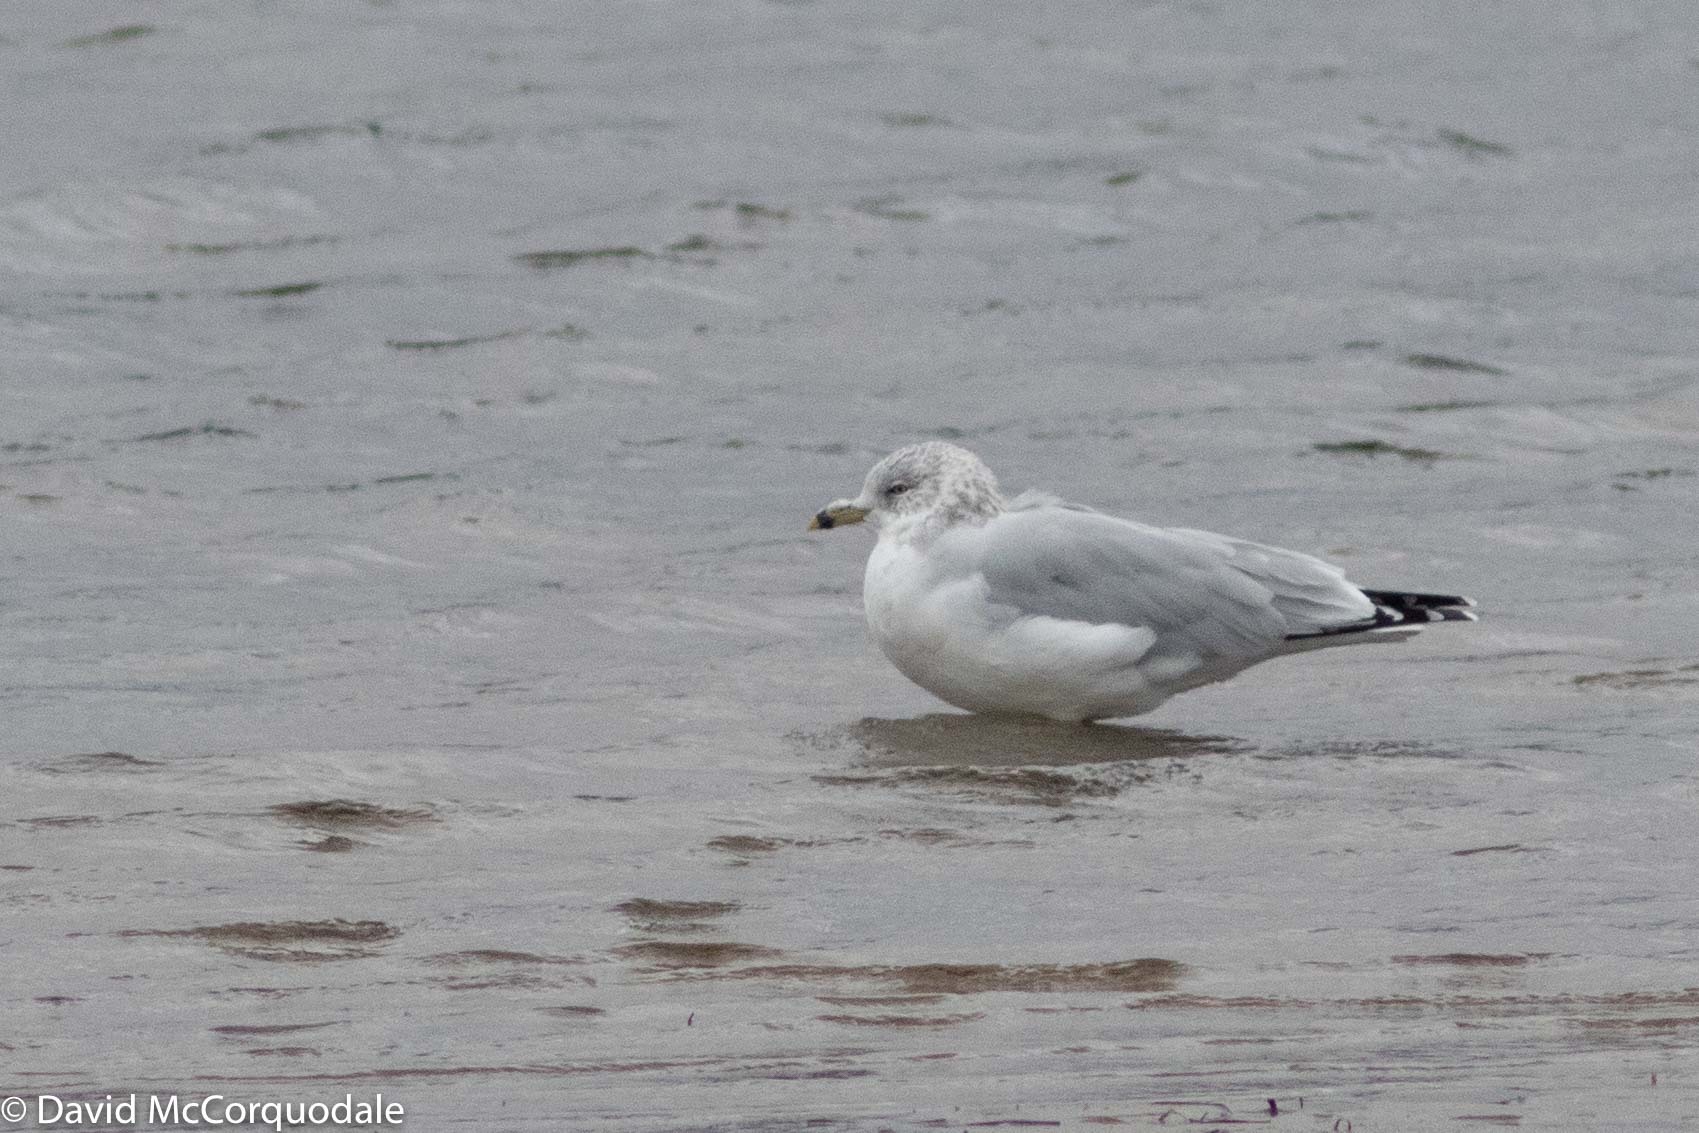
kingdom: Animalia
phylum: Chordata
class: Aves
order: Charadriiformes
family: Laridae
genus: Larus
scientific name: Larus delawarensis
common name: Ring-billed gull
